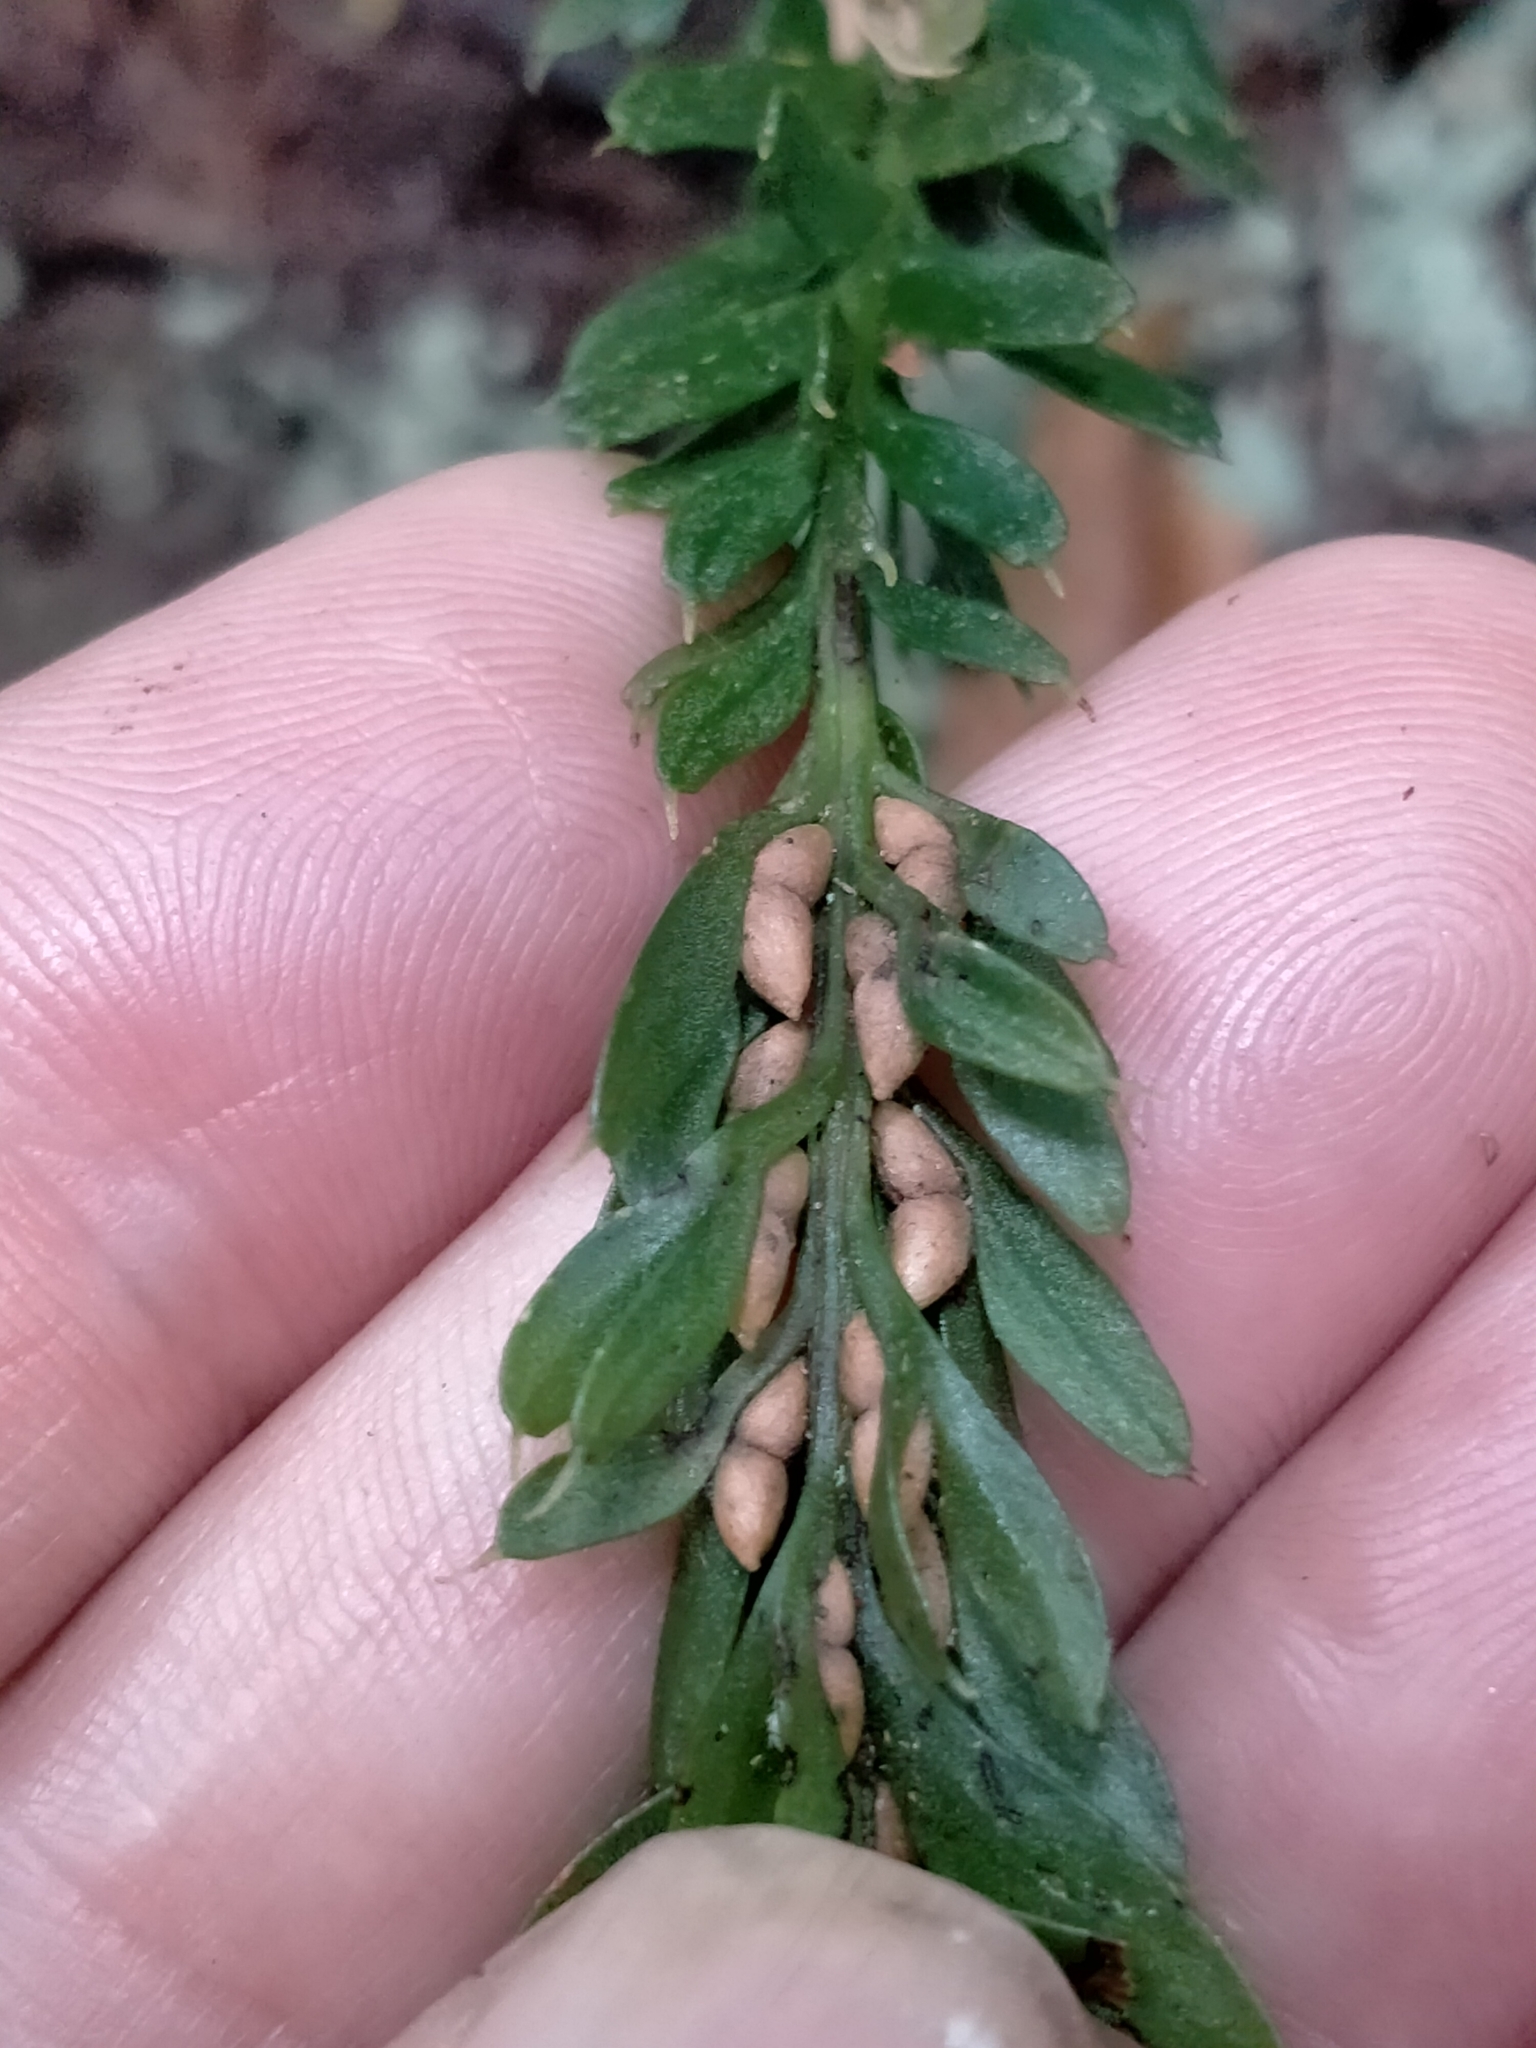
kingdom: Plantae
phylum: Tracheophyta
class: Polypodiopsida
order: Psilotales
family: Psilotaceae
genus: Tmesipteris
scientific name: Tmesipteris tannensis
